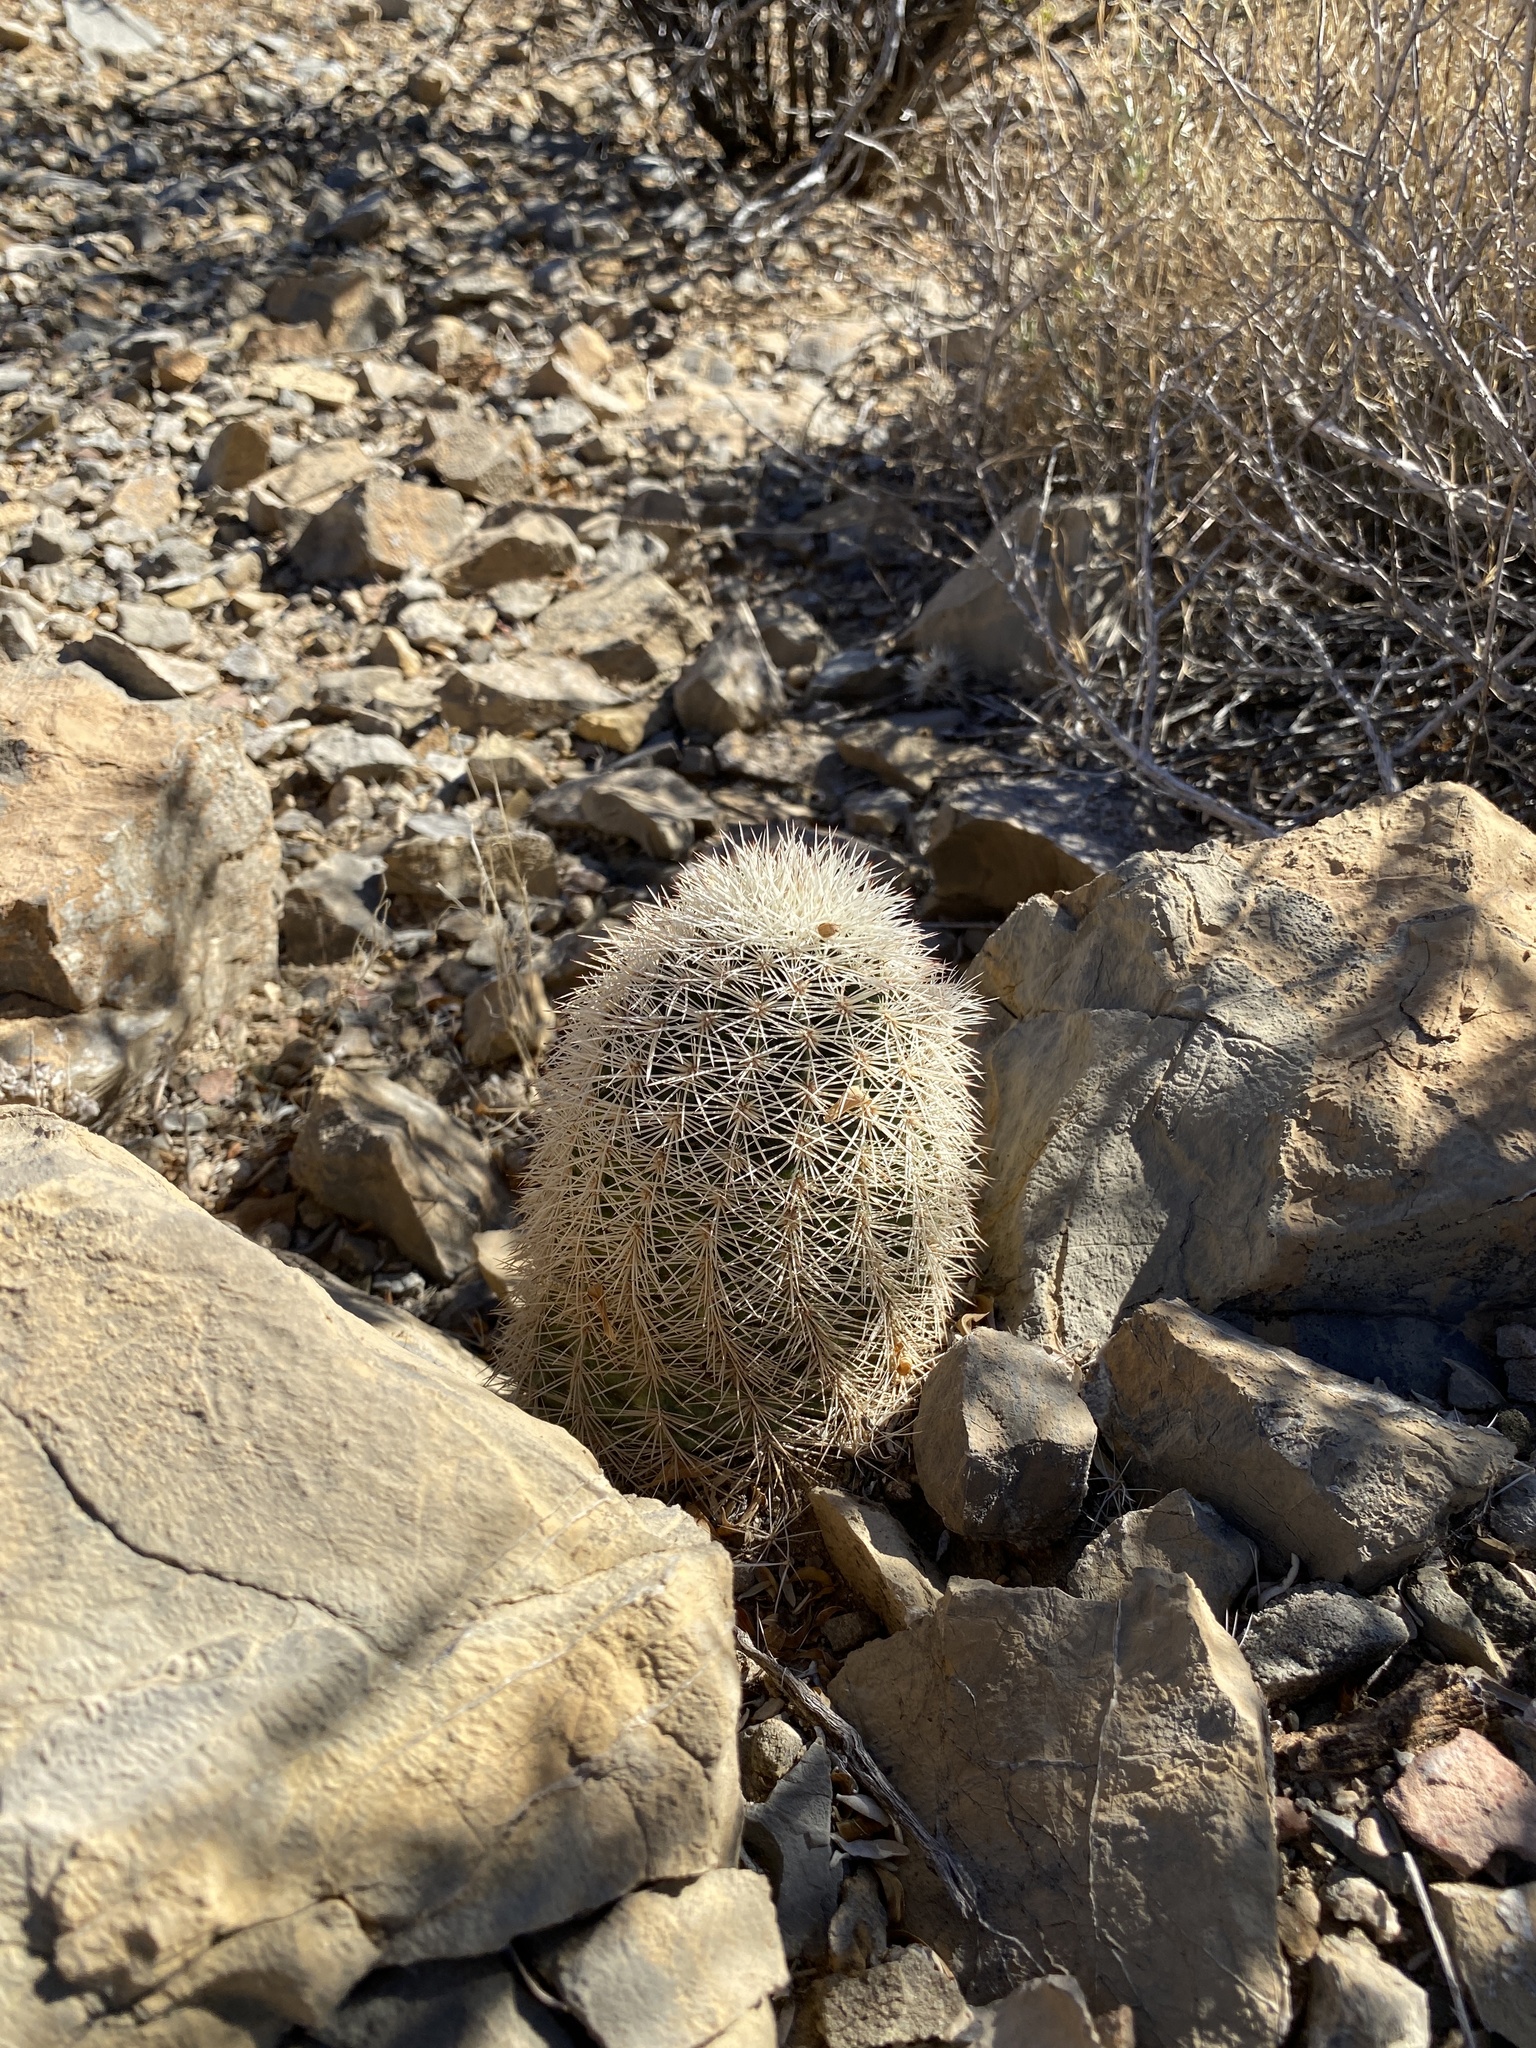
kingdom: Plantae
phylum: Tracheophyta
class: Magnoliopsida
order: Caryophyllales
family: Cactaceae
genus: Echinocereus
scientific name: Echinocereus dasyacanthus
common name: Spiny hedgehog cactus
